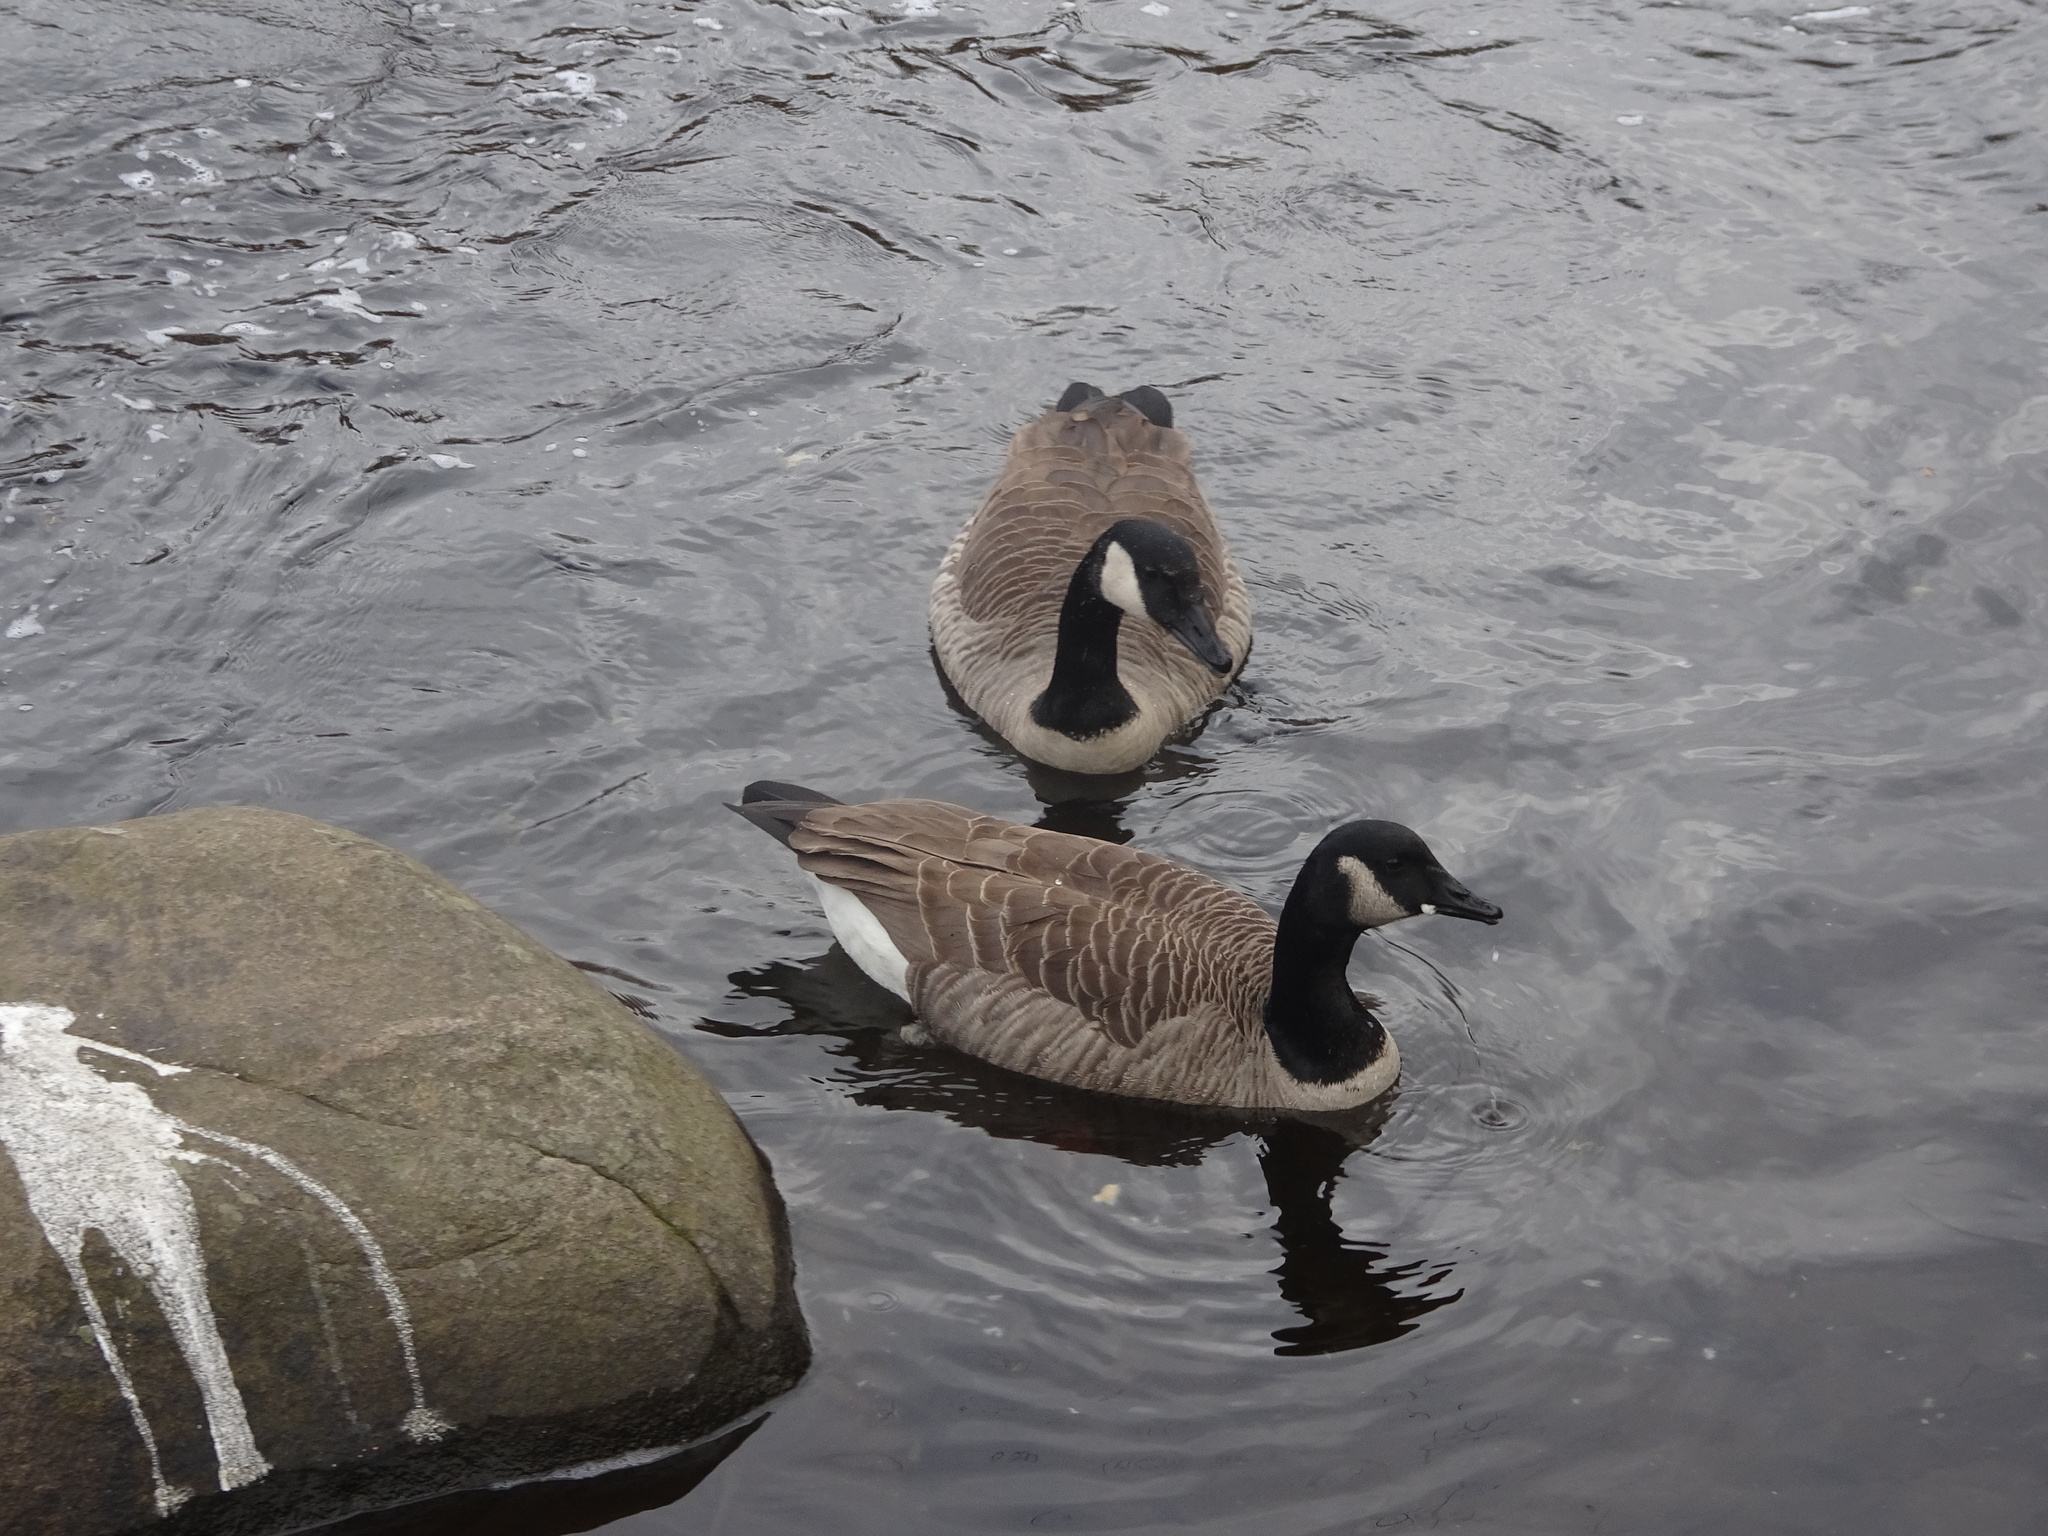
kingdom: Animalia
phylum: Chordata
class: Aves
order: Anseriformes
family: Anatidae
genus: Branta
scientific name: Branta canadensis
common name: Canada goose
